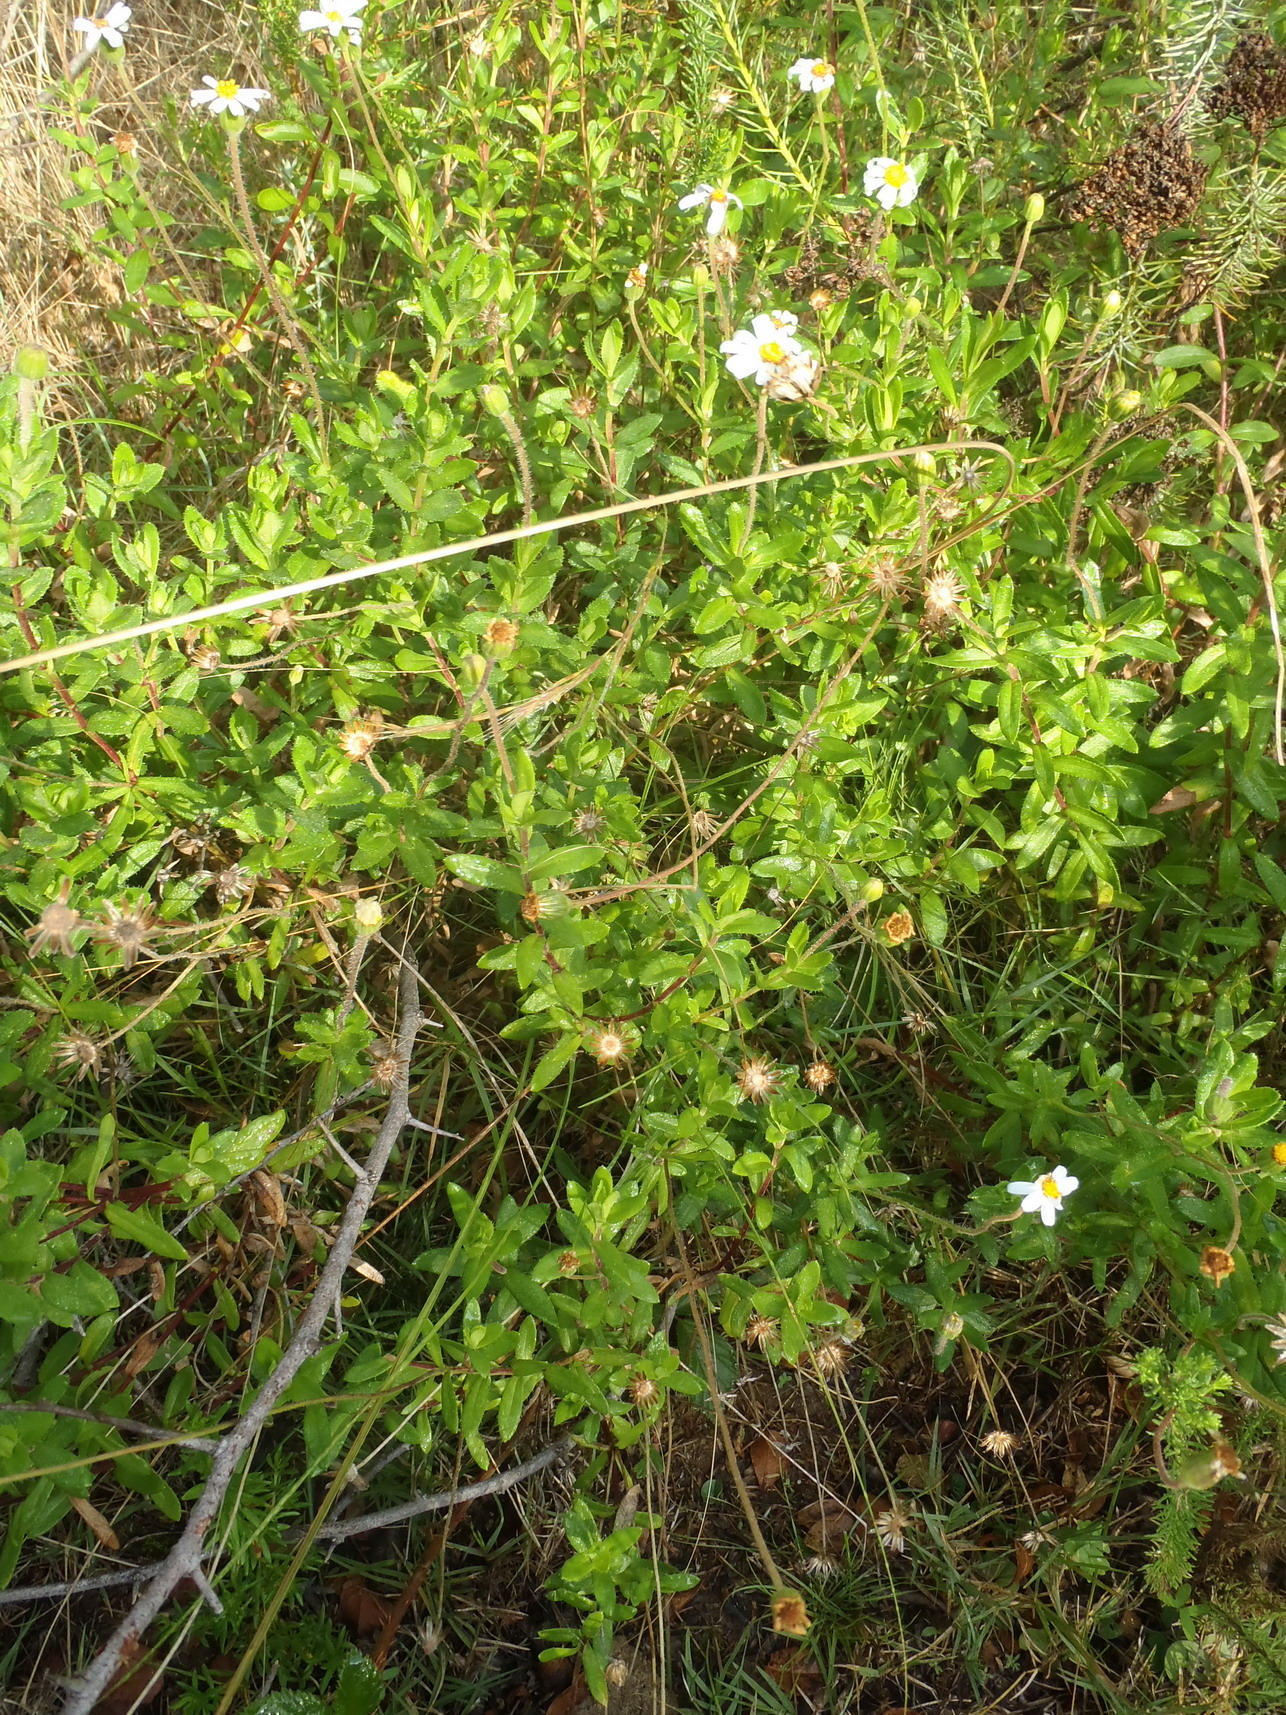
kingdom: Plantae
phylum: Tracheophyta
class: Magnoliopsida
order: Asterales
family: Asteraceae
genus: Felicia
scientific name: Felicia amoena
